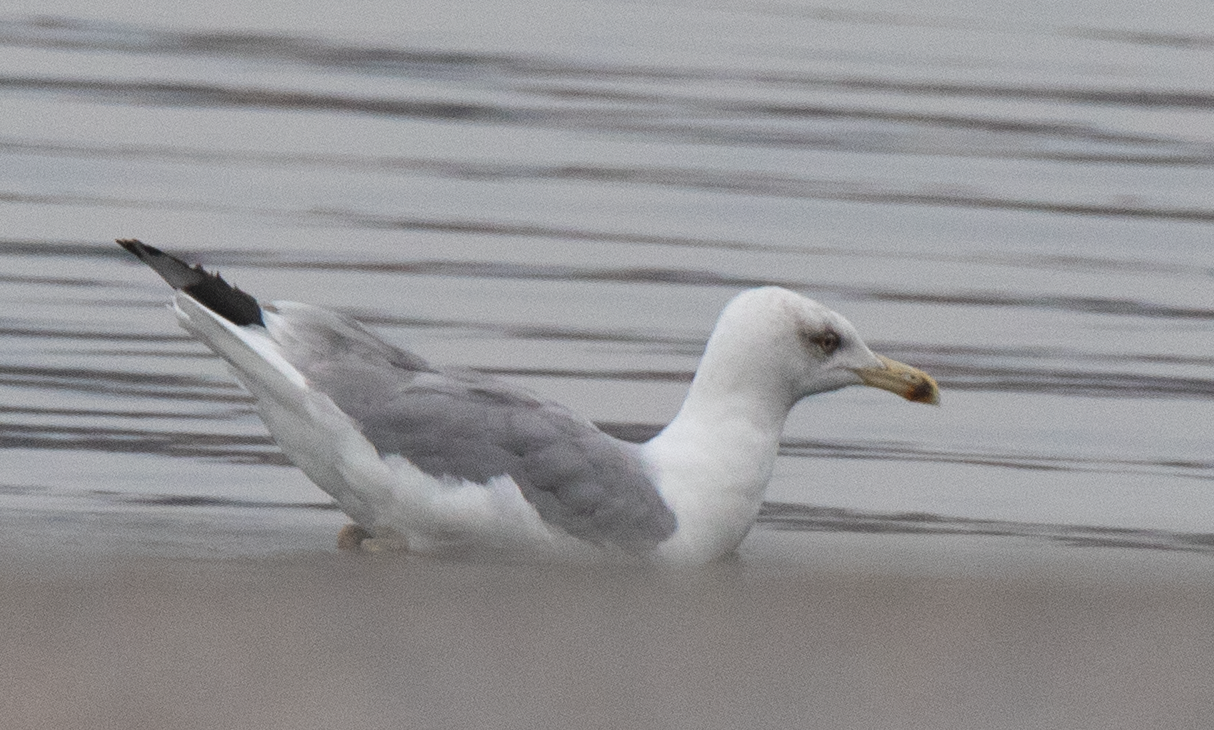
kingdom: Animalia
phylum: Chordata
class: Aves
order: Charadriiformes
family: Laridae
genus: Larus
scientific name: Larus cachinnans
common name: Caspian gull
